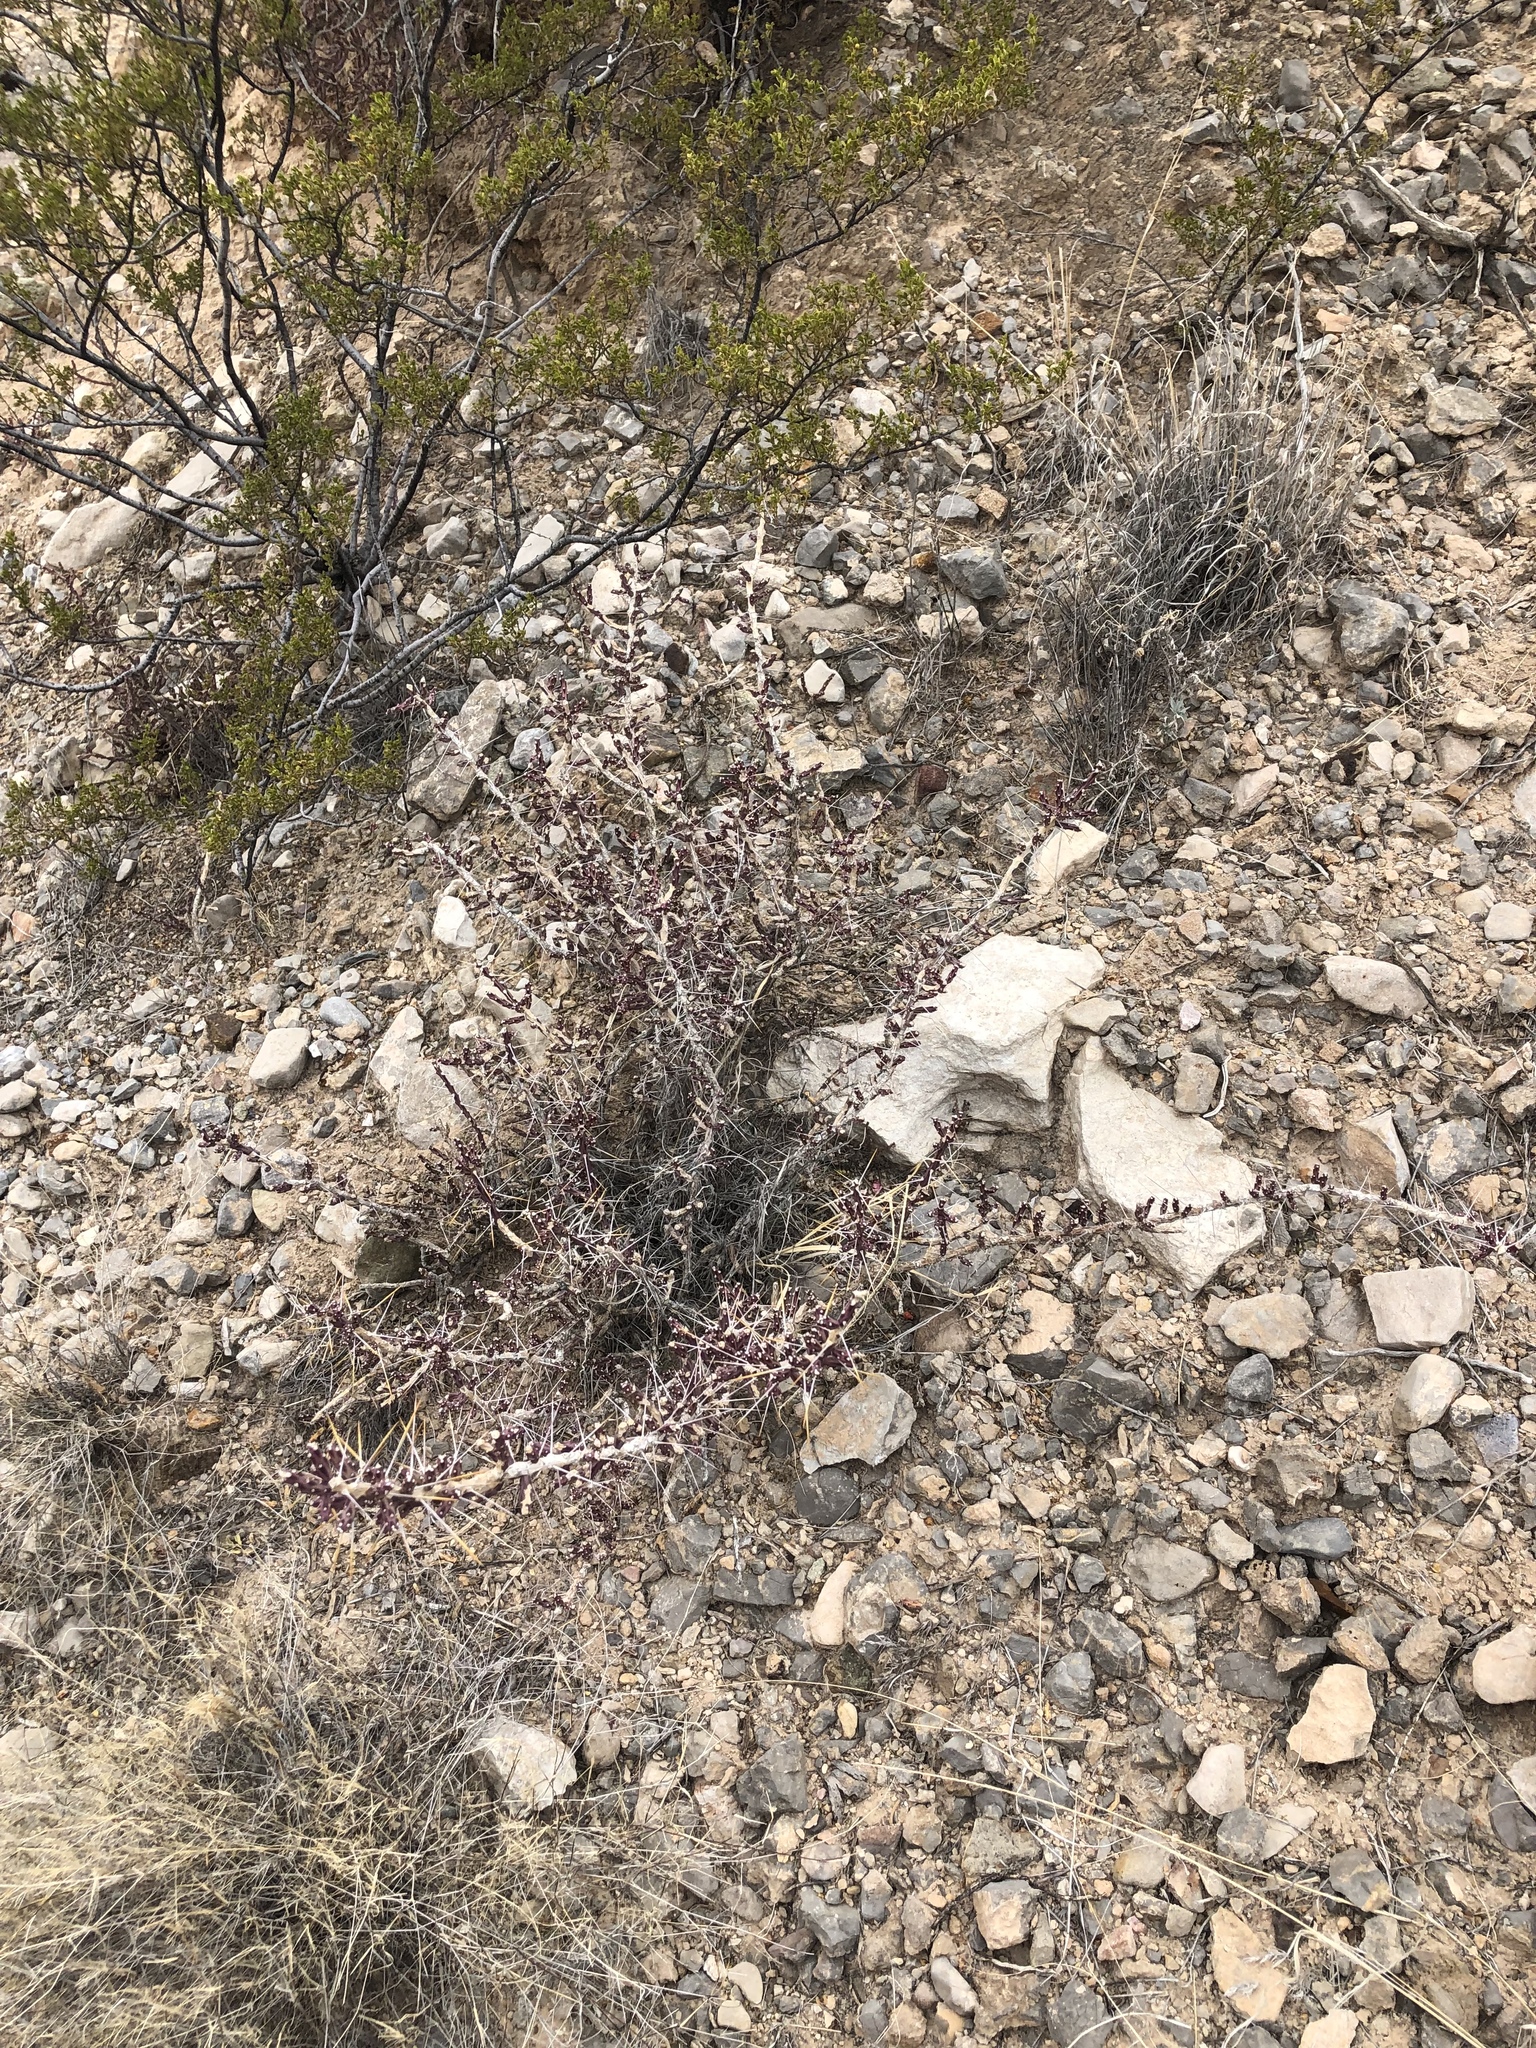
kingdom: Plantae
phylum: Tracheophyta
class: Magnoliopsida
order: Caryophyllales
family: Cactaceae
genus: Cylindropuntia
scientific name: Cylindropuntia leptocaulis
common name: Christmas cactus
